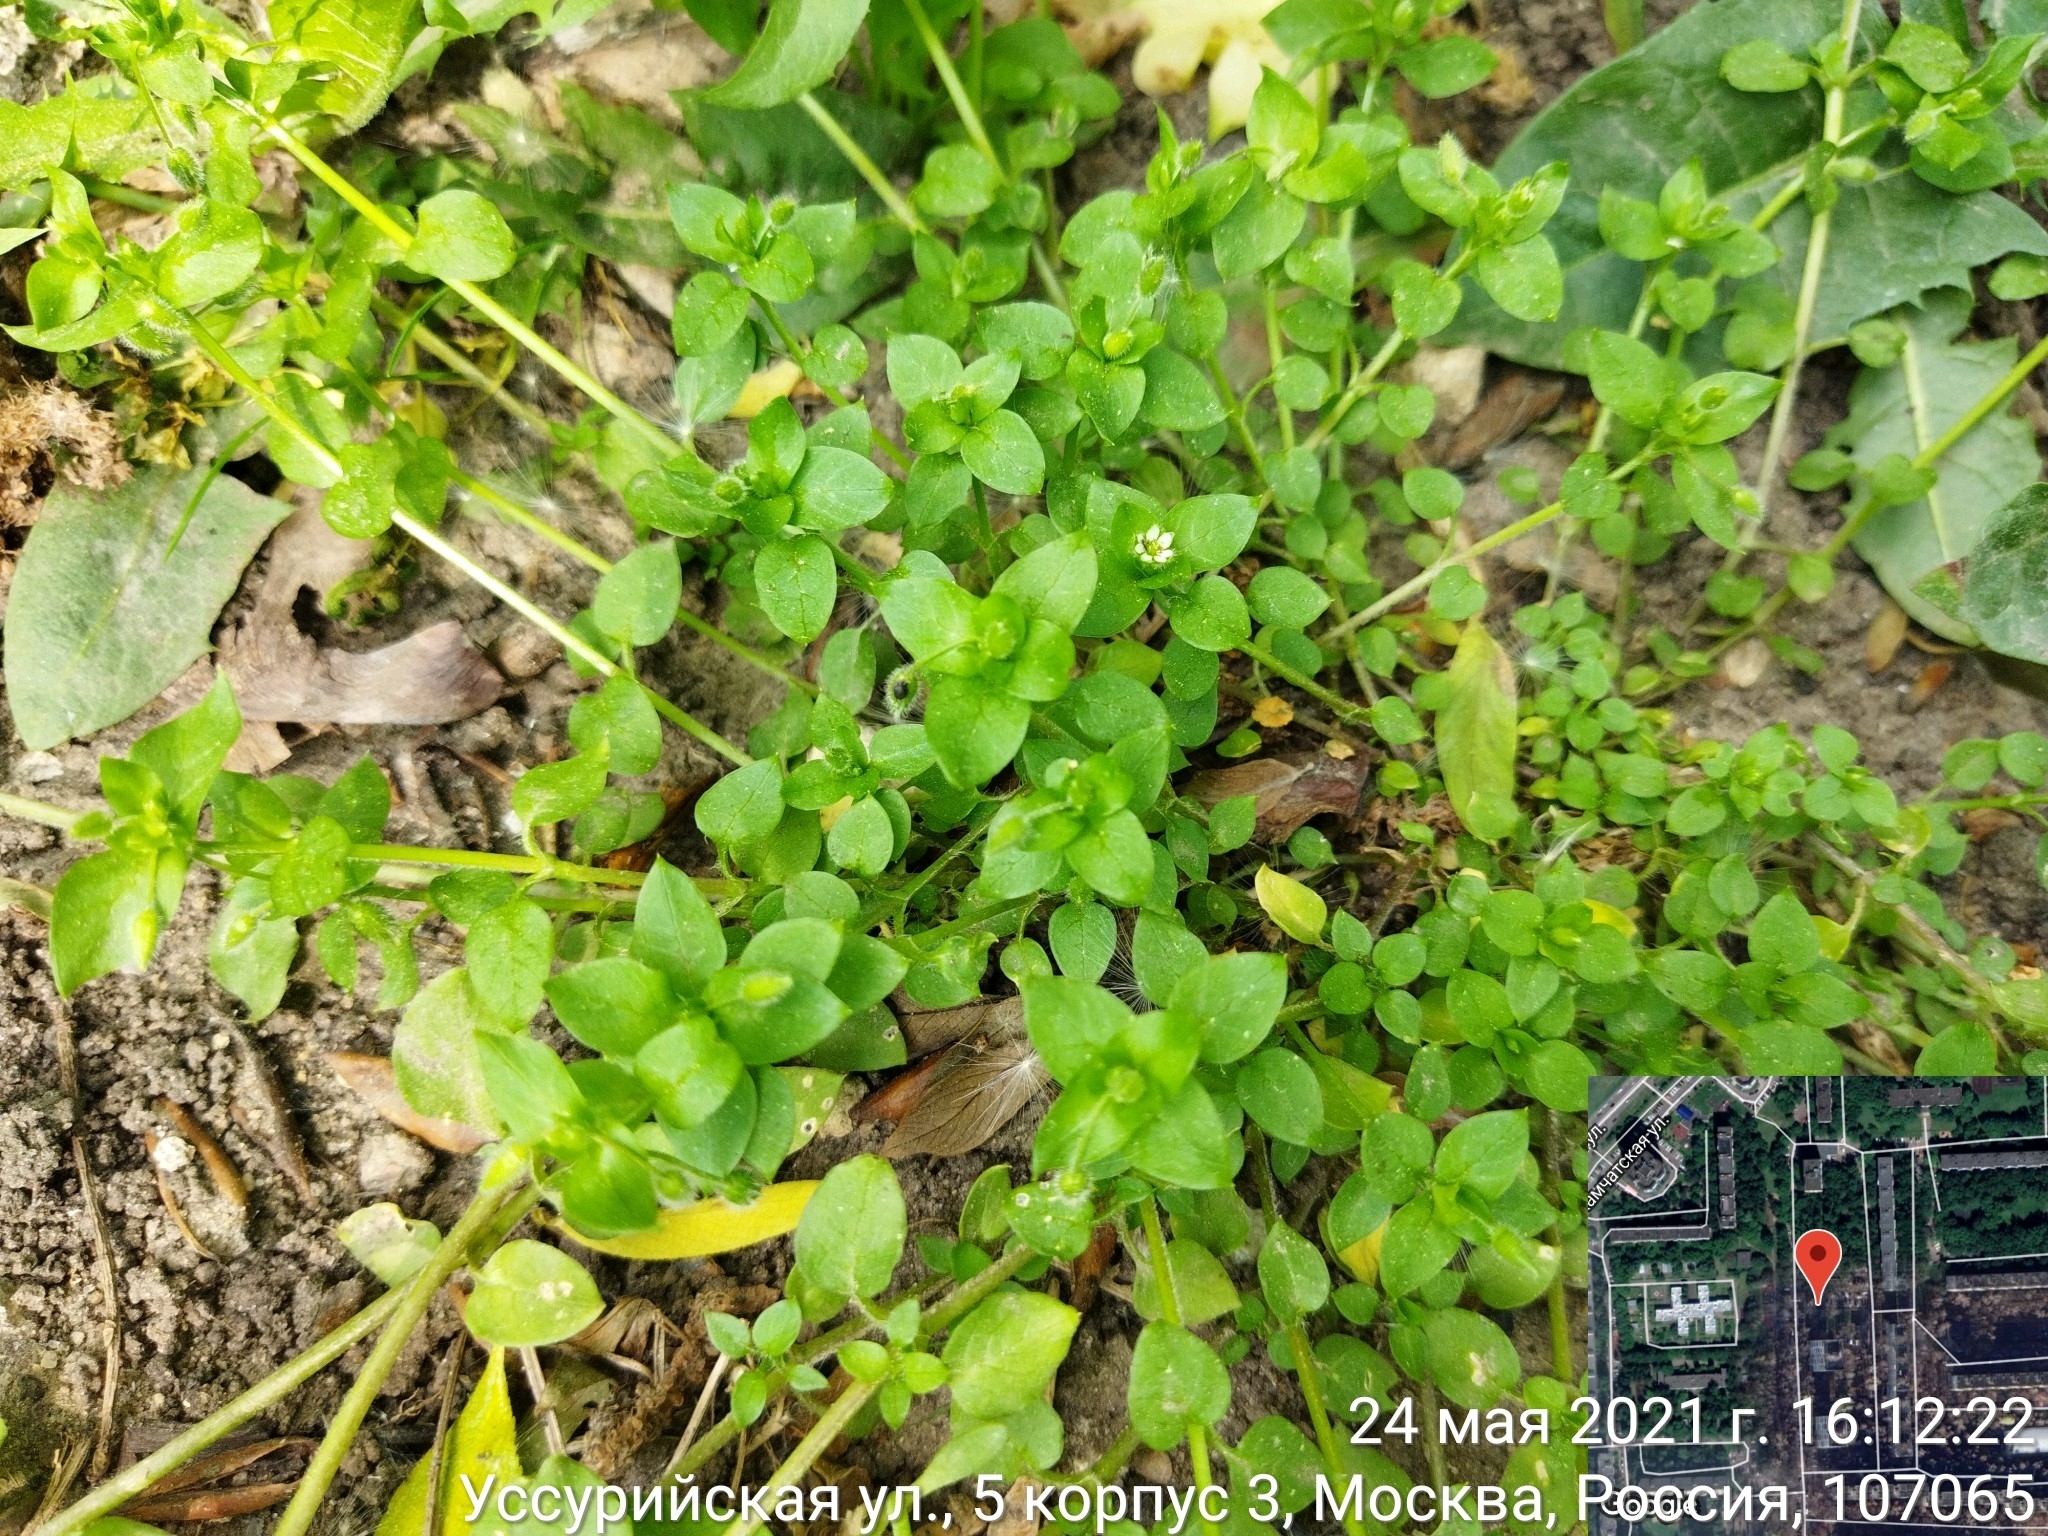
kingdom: Plantae
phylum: Tracheophyta
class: Magnoliopsida
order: Caryophyllales
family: Caryophyllaceae
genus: Stellaria
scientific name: Stellaria media
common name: Common chickweed
